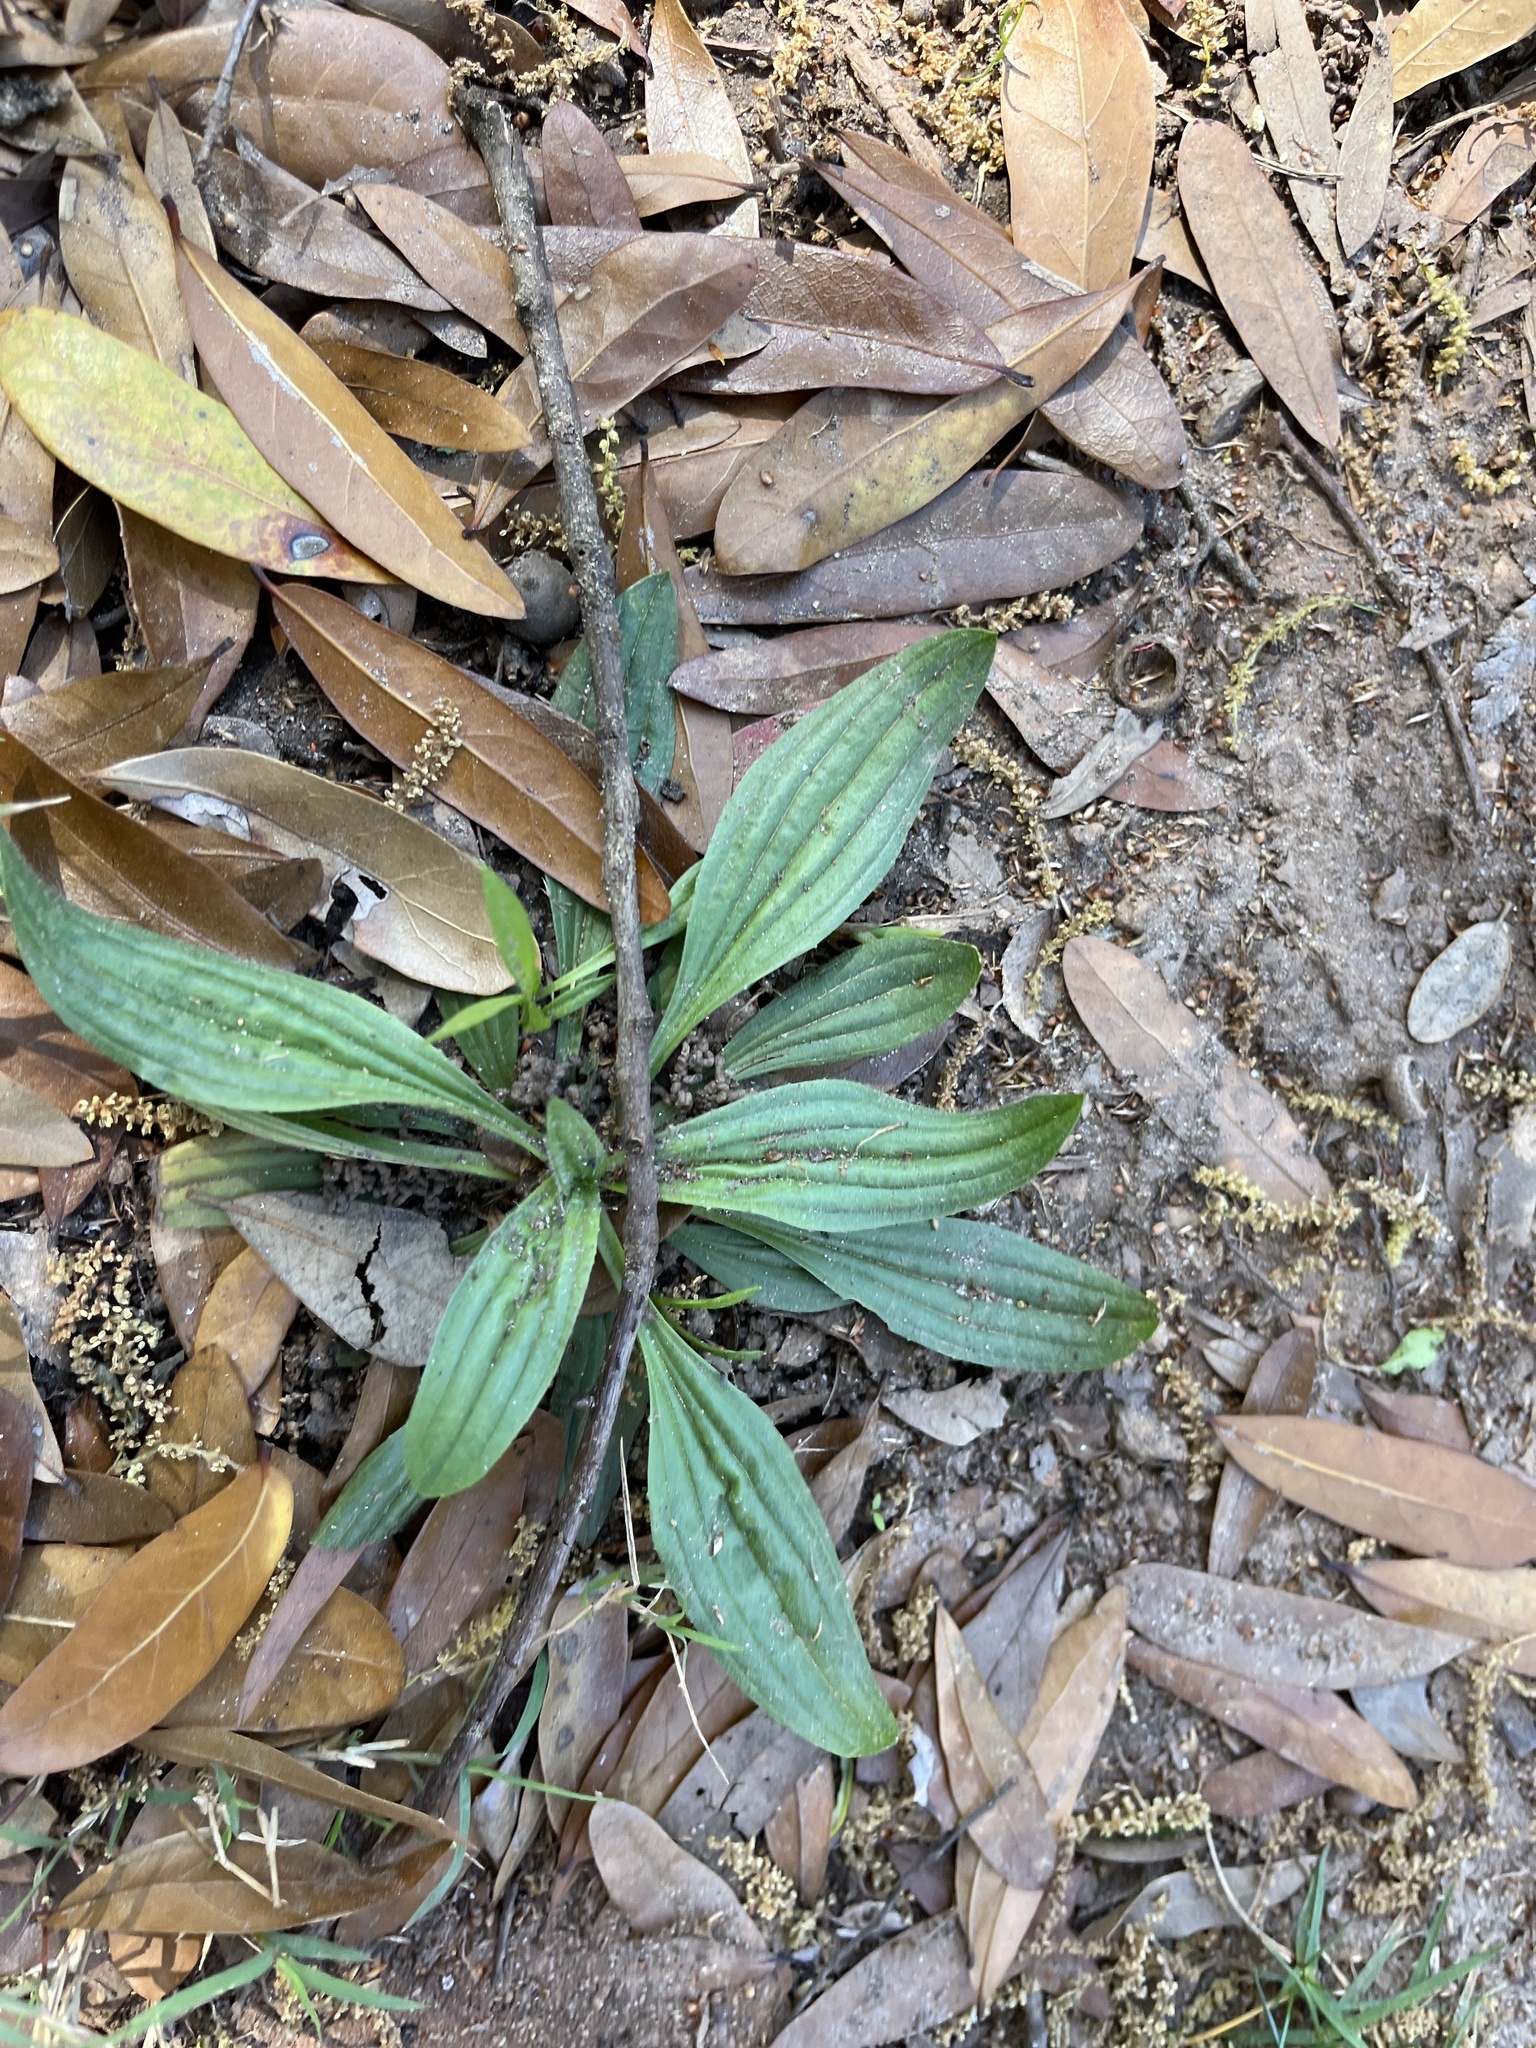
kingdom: Plantae
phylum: Tracheophyta
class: Magnoliopsida
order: Lamiales
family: Plantaginaceae
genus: Plantago
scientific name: Plantago lanceolata
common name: Ribwort plantain
